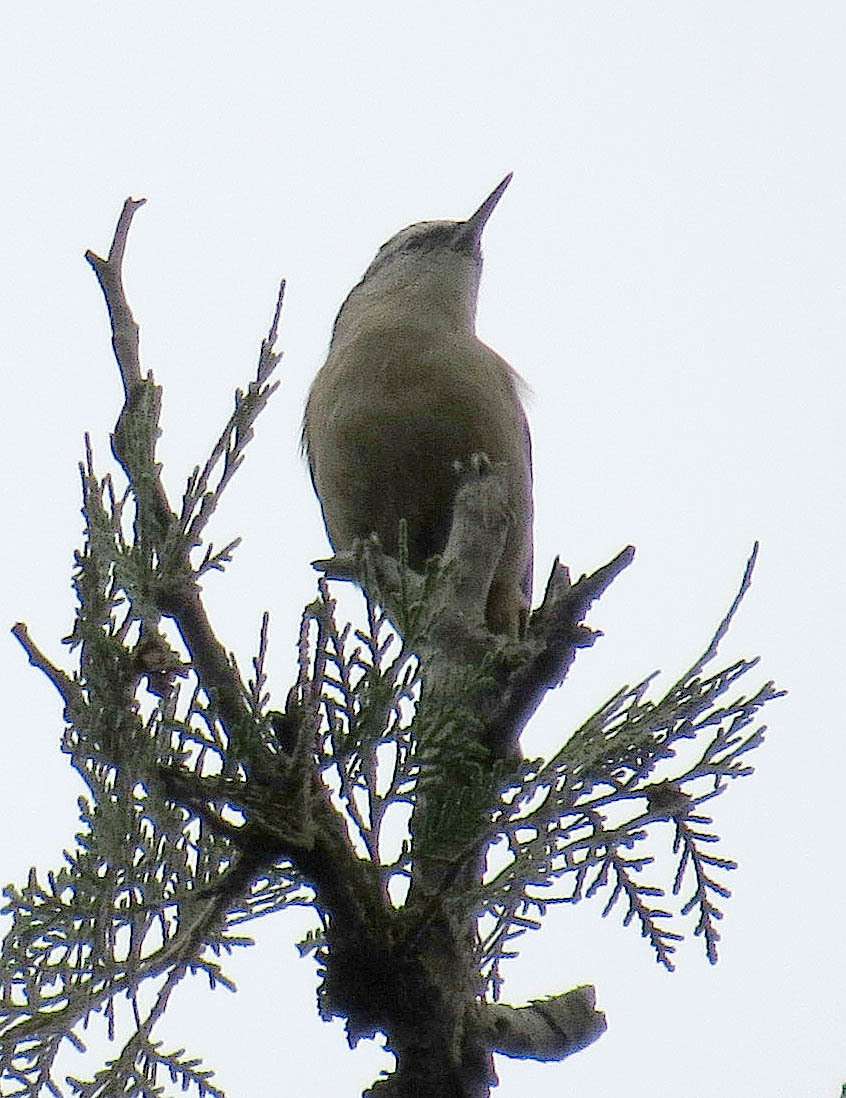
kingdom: Animalia
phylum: Chordata
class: Aves
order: Passeriformes
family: Sittidae
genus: Sitta
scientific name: Sitta villosa
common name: Chinese nuthatch
